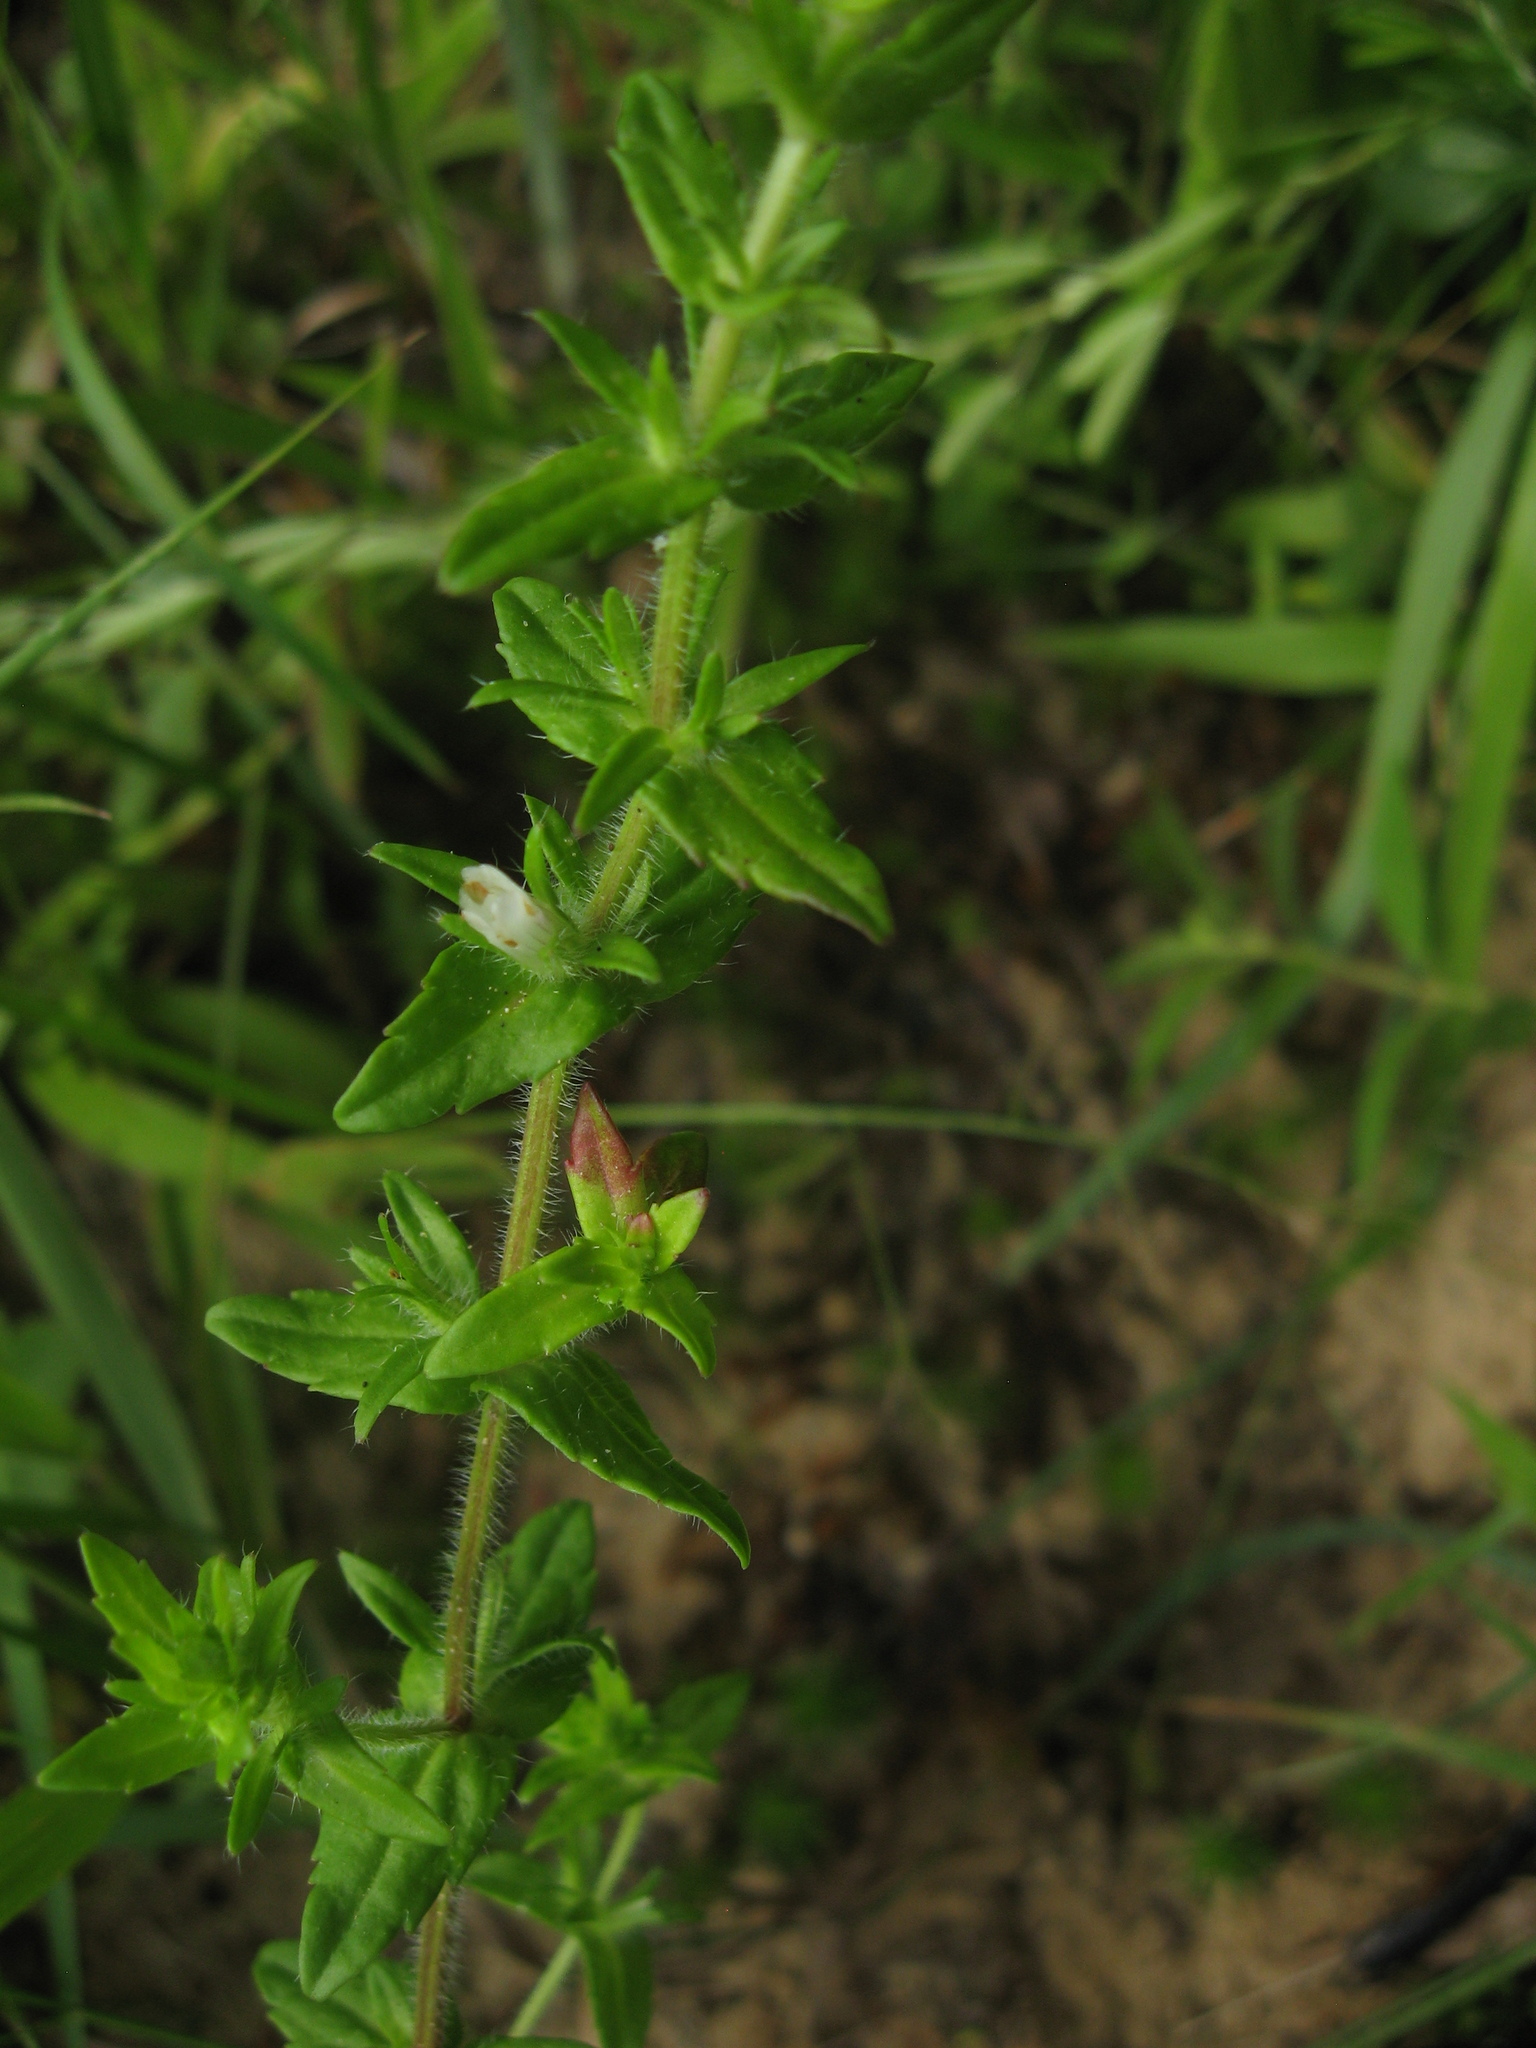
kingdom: Plantae
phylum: Tracheophyta
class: Magnoliopsida
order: Lamiales
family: Plantaginaceae
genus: Gratiola
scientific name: Gratiola pilosa
